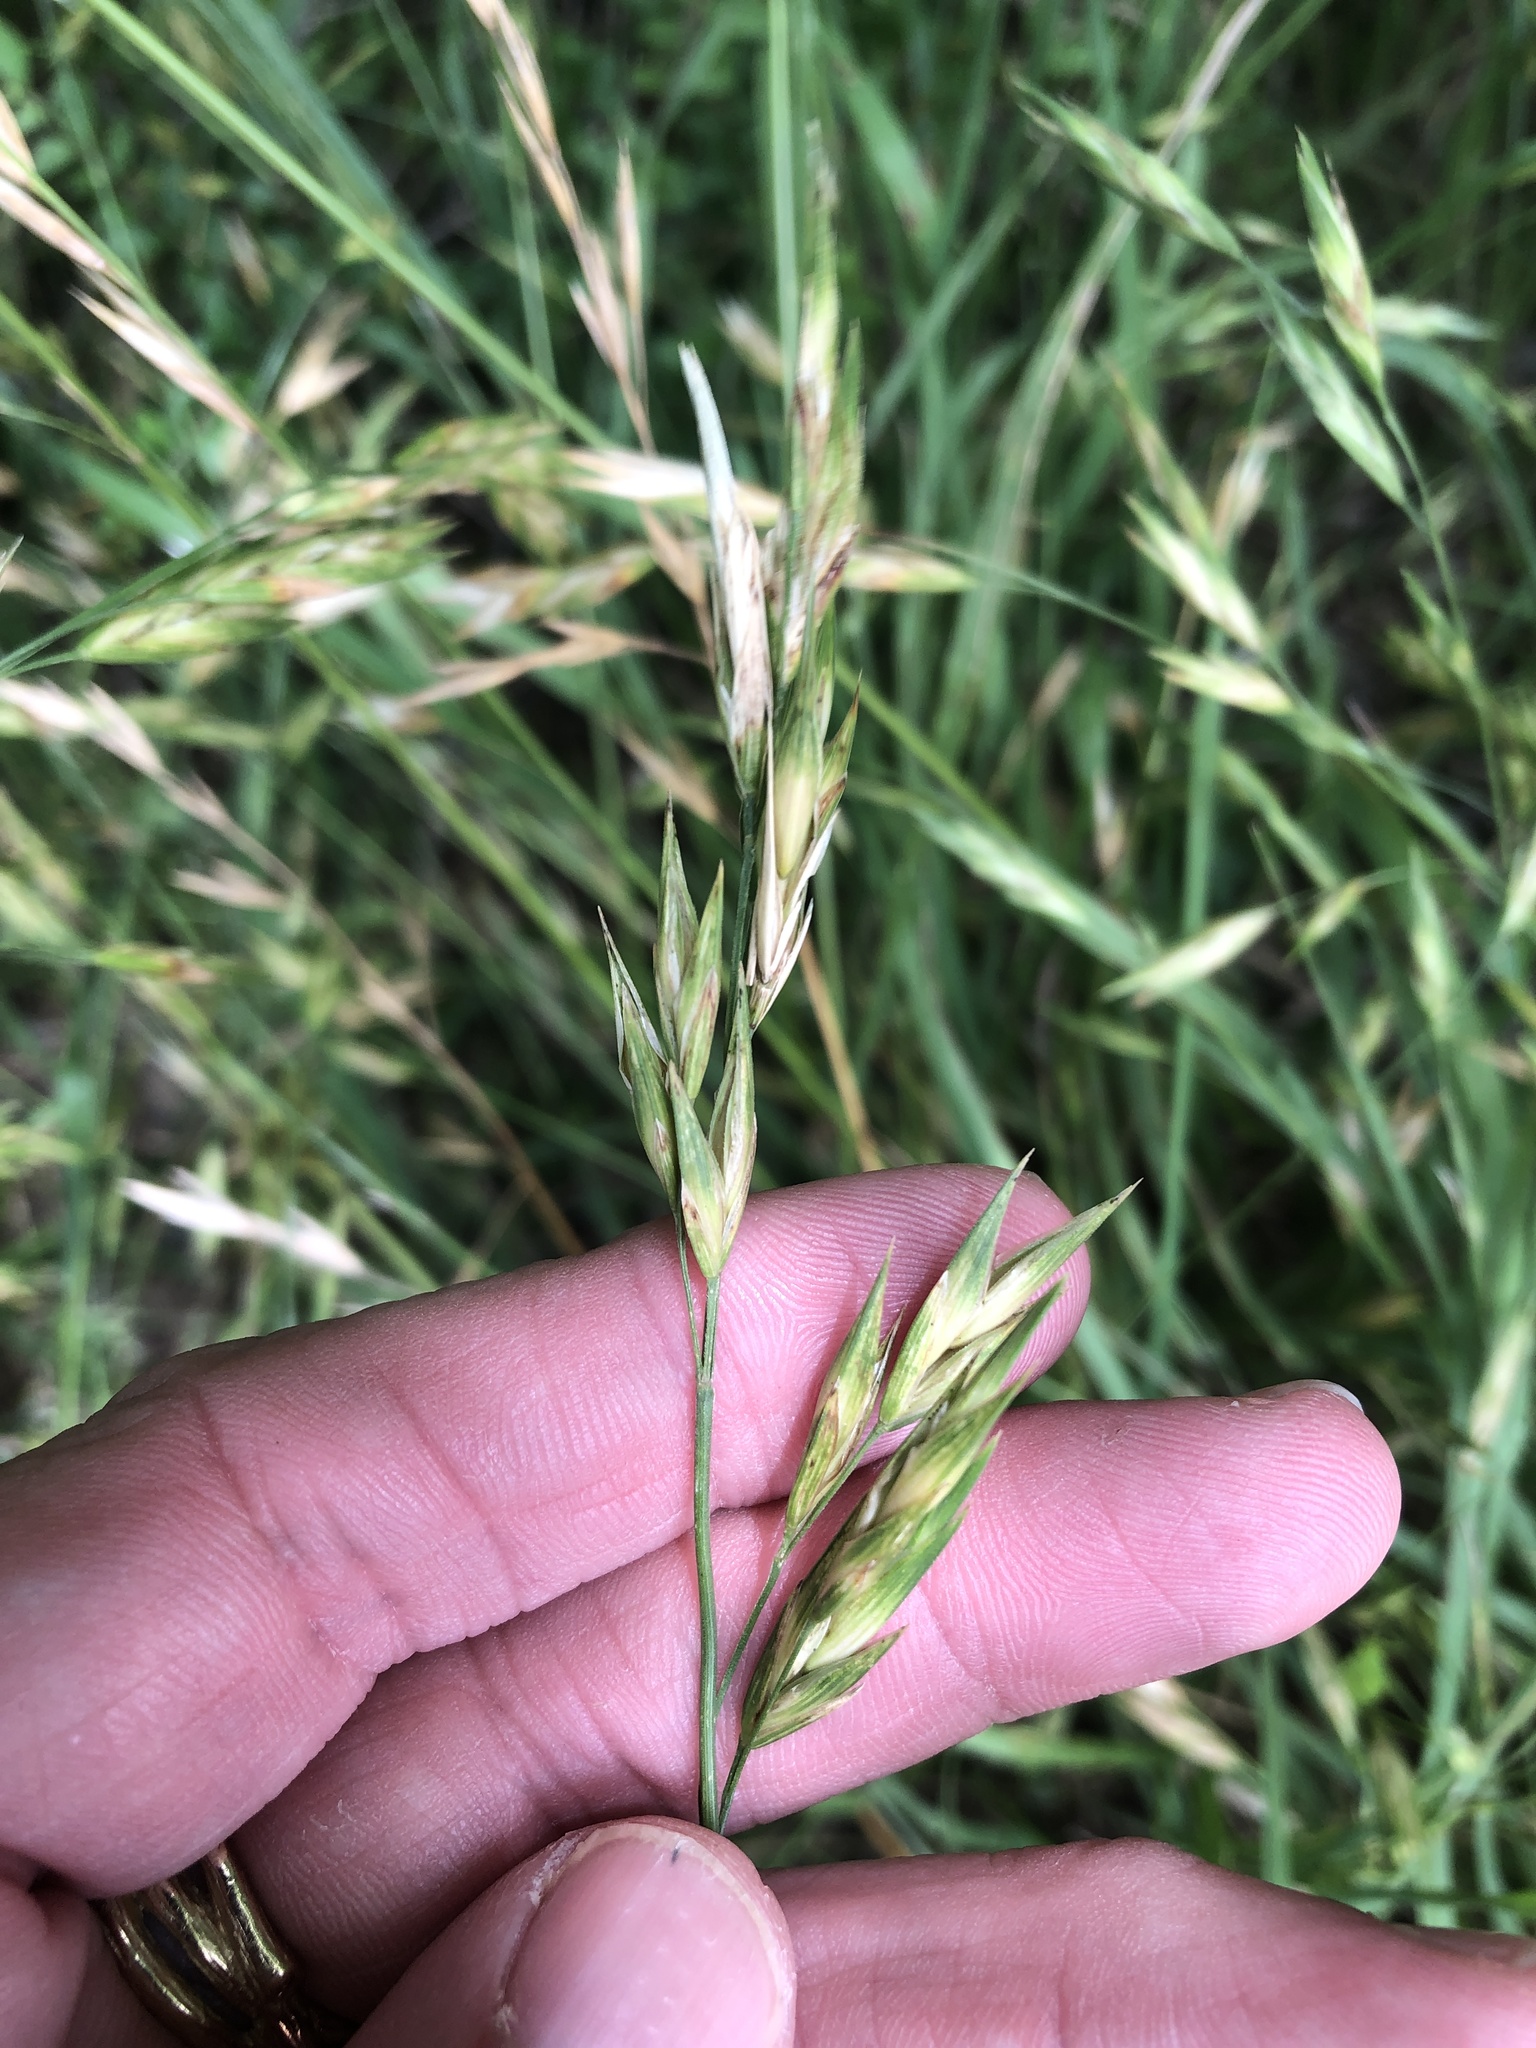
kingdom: Plantae
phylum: Tracheophyta
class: Liliopsida
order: Poales
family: Poaceae
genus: Bromus
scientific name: Bromus catharticus
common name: Rescuegrass
